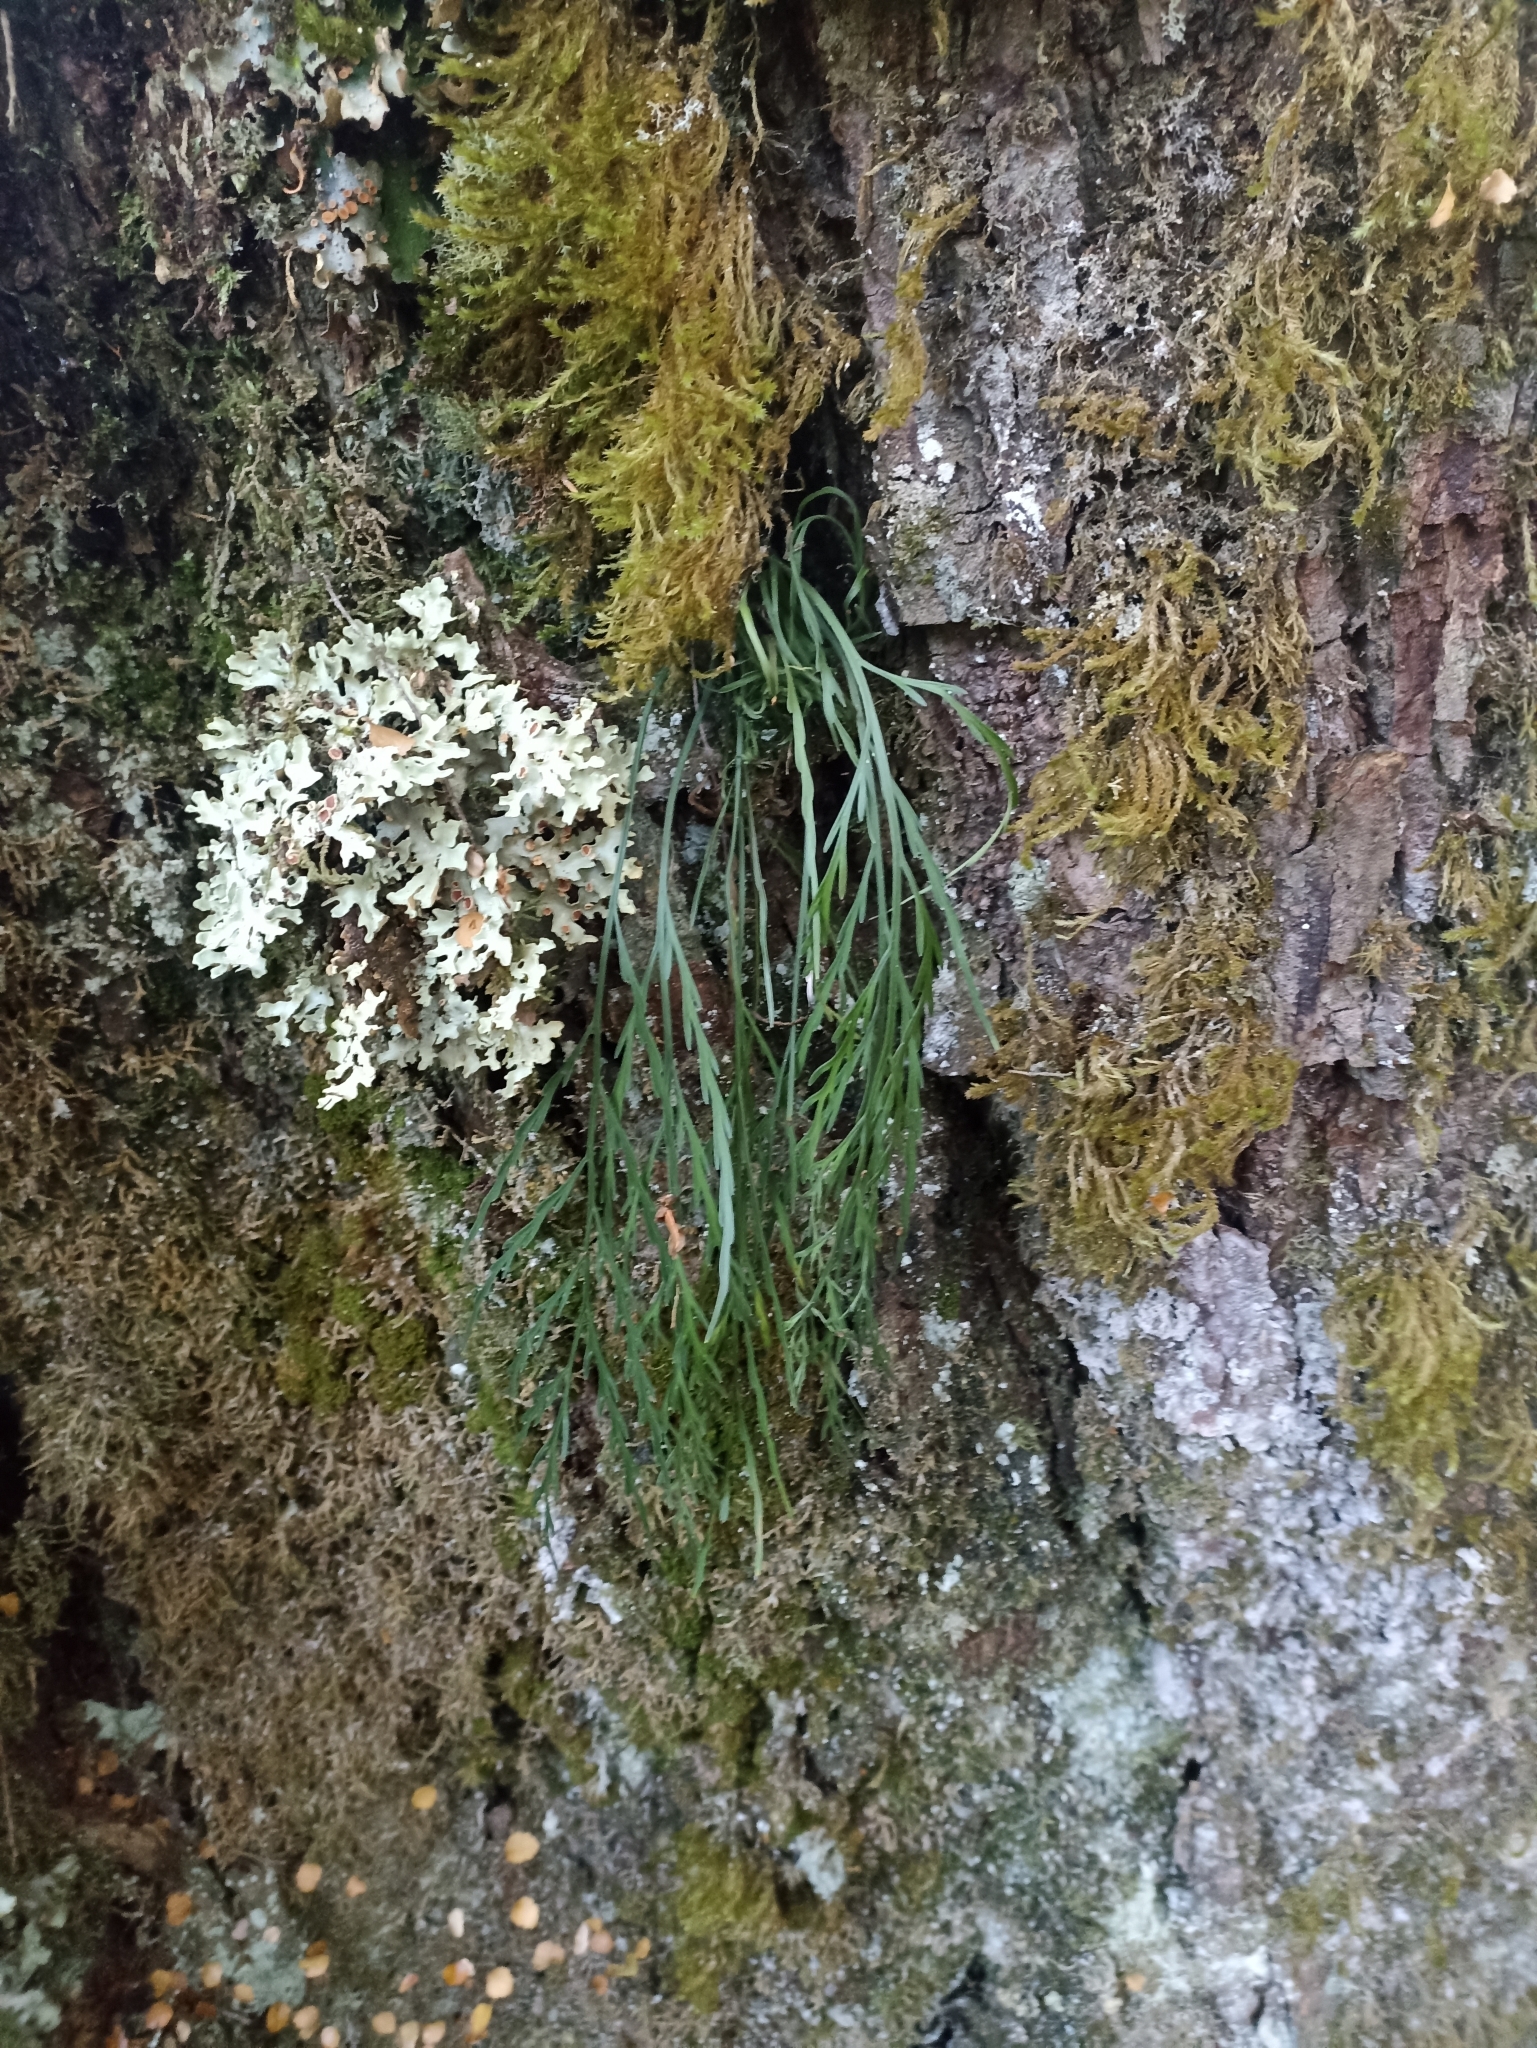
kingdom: Plantae
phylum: Tracheophyta
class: Polypodiopsida
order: Polypodiales
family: Aspleniaceae
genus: Asplenium
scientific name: Asplenium flaccidum
